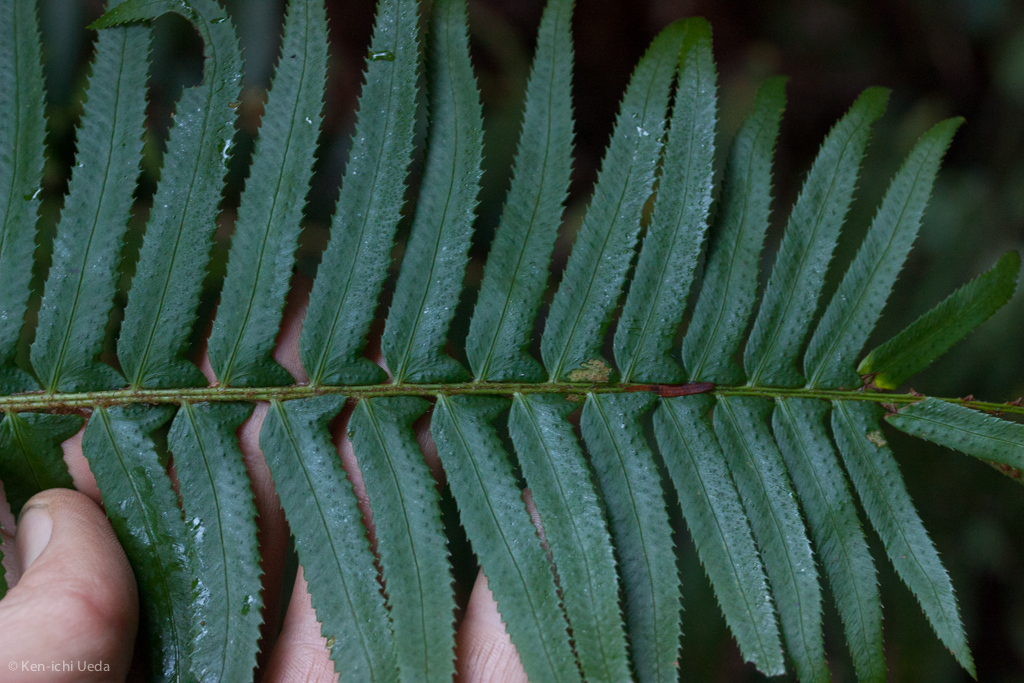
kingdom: Plantae
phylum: Tracheophyta
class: Polypodiopsida
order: Polypodiales
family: Dryopteridaceae
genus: Polystichum
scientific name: Polystichum munitum
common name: Western sword-fern
